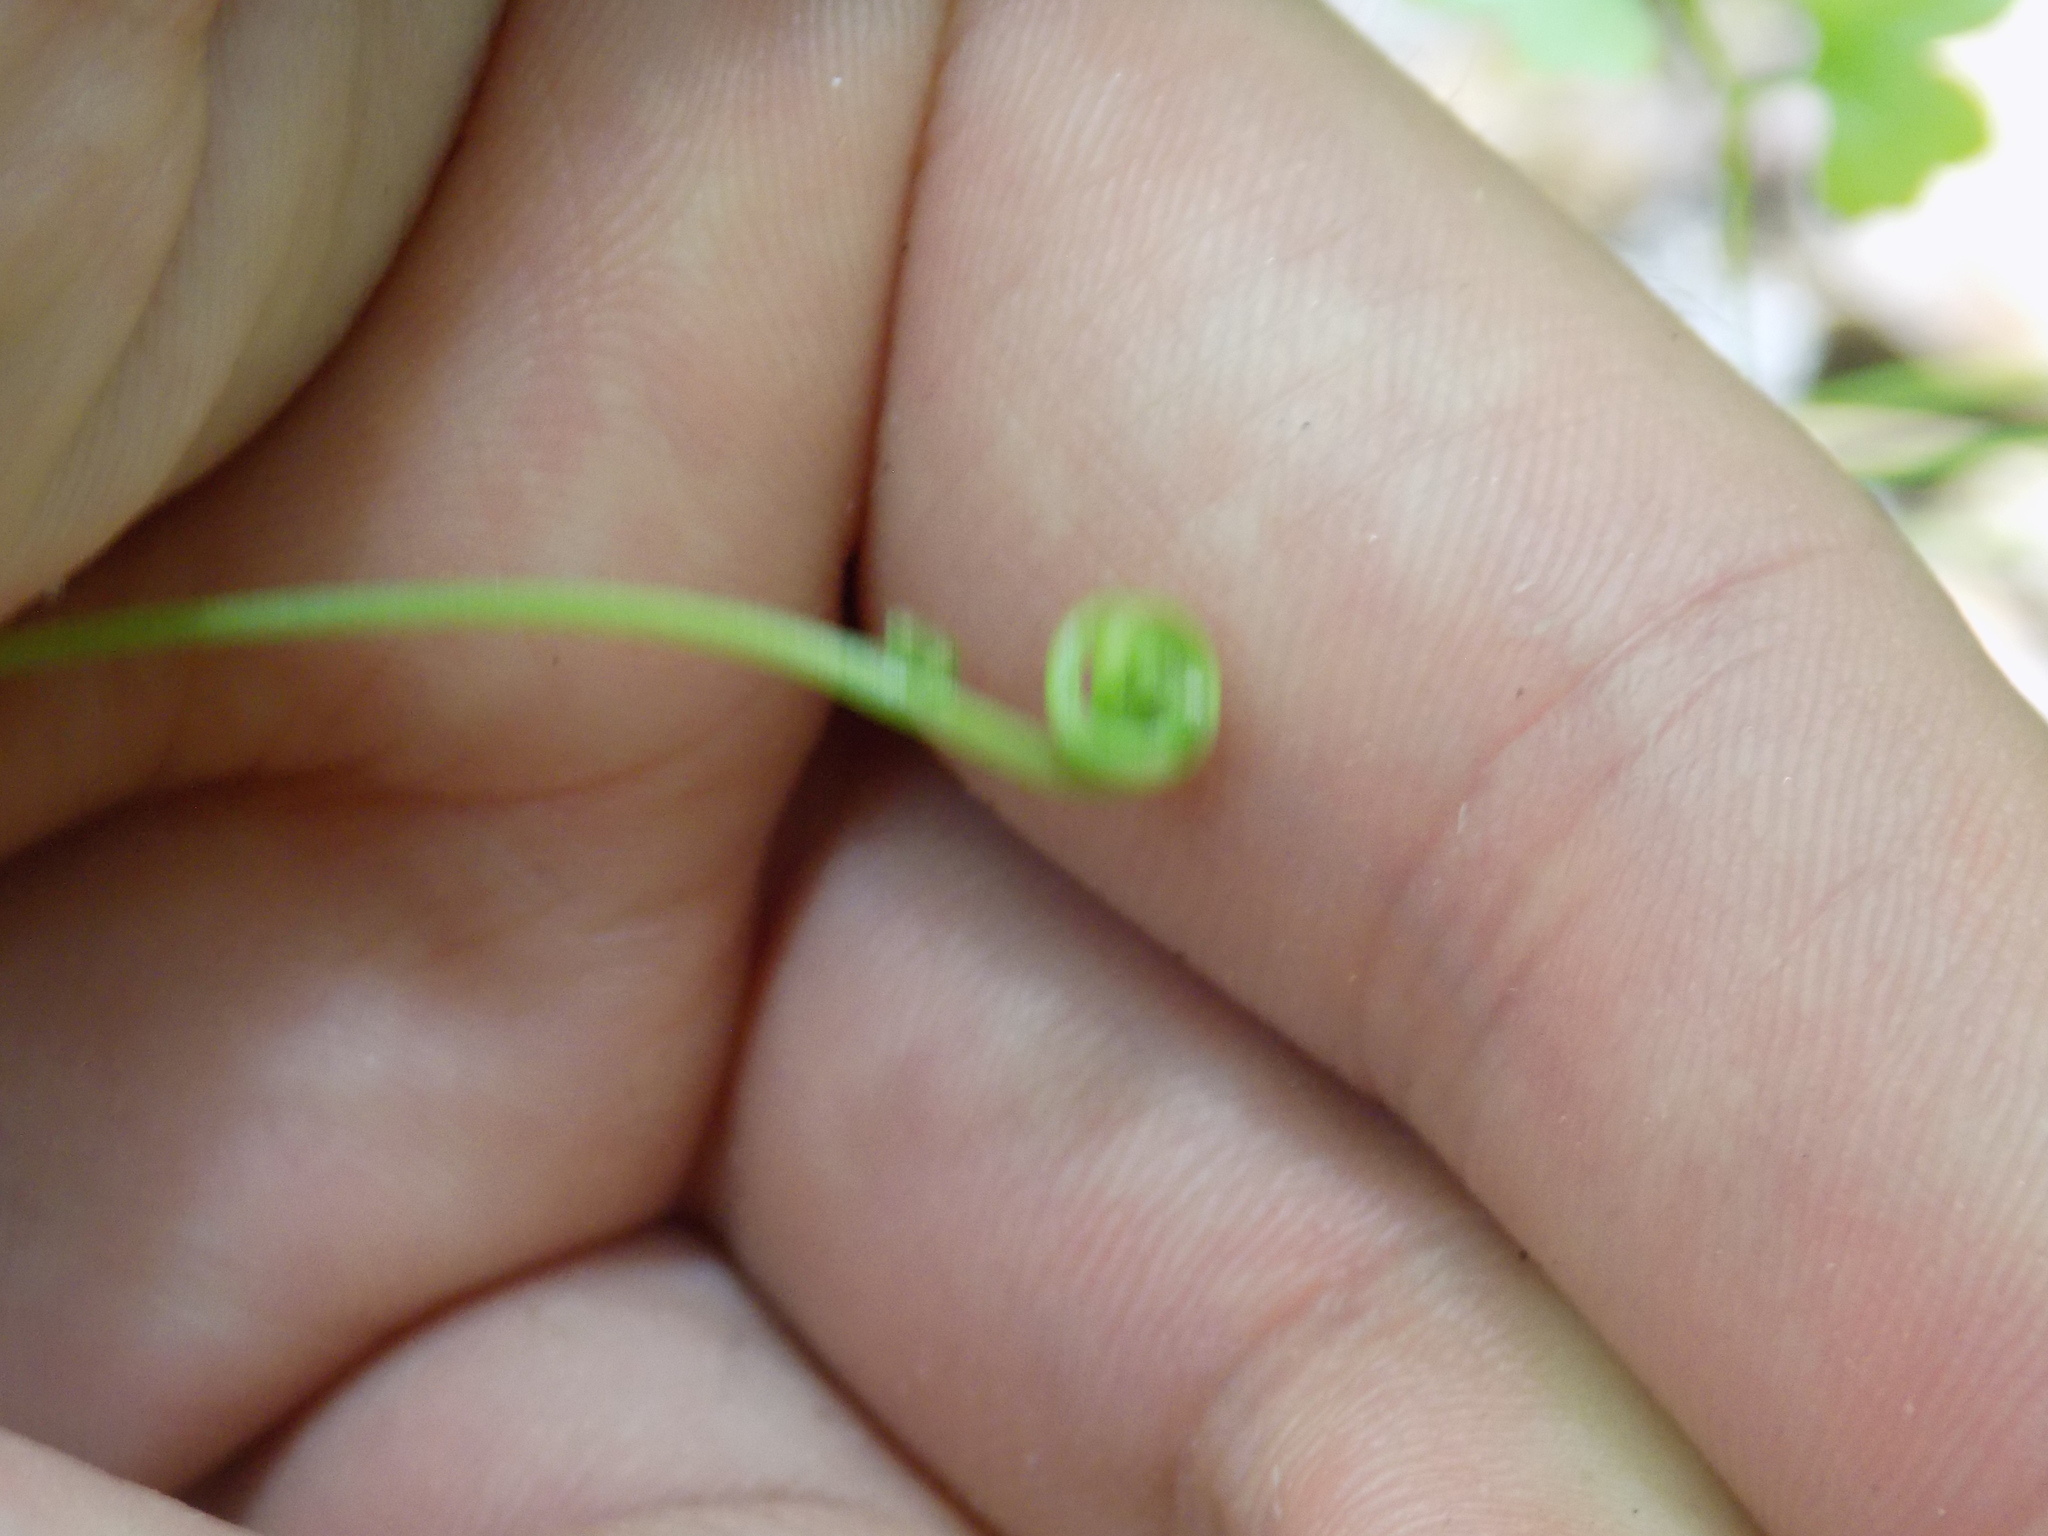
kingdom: Plantae
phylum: Tracheophyta
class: Polypodiopsida
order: Schizaeales
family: Lygodiaceae
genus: Lygodium
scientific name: Lygodium japonicum
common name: Japanese climbing fern
